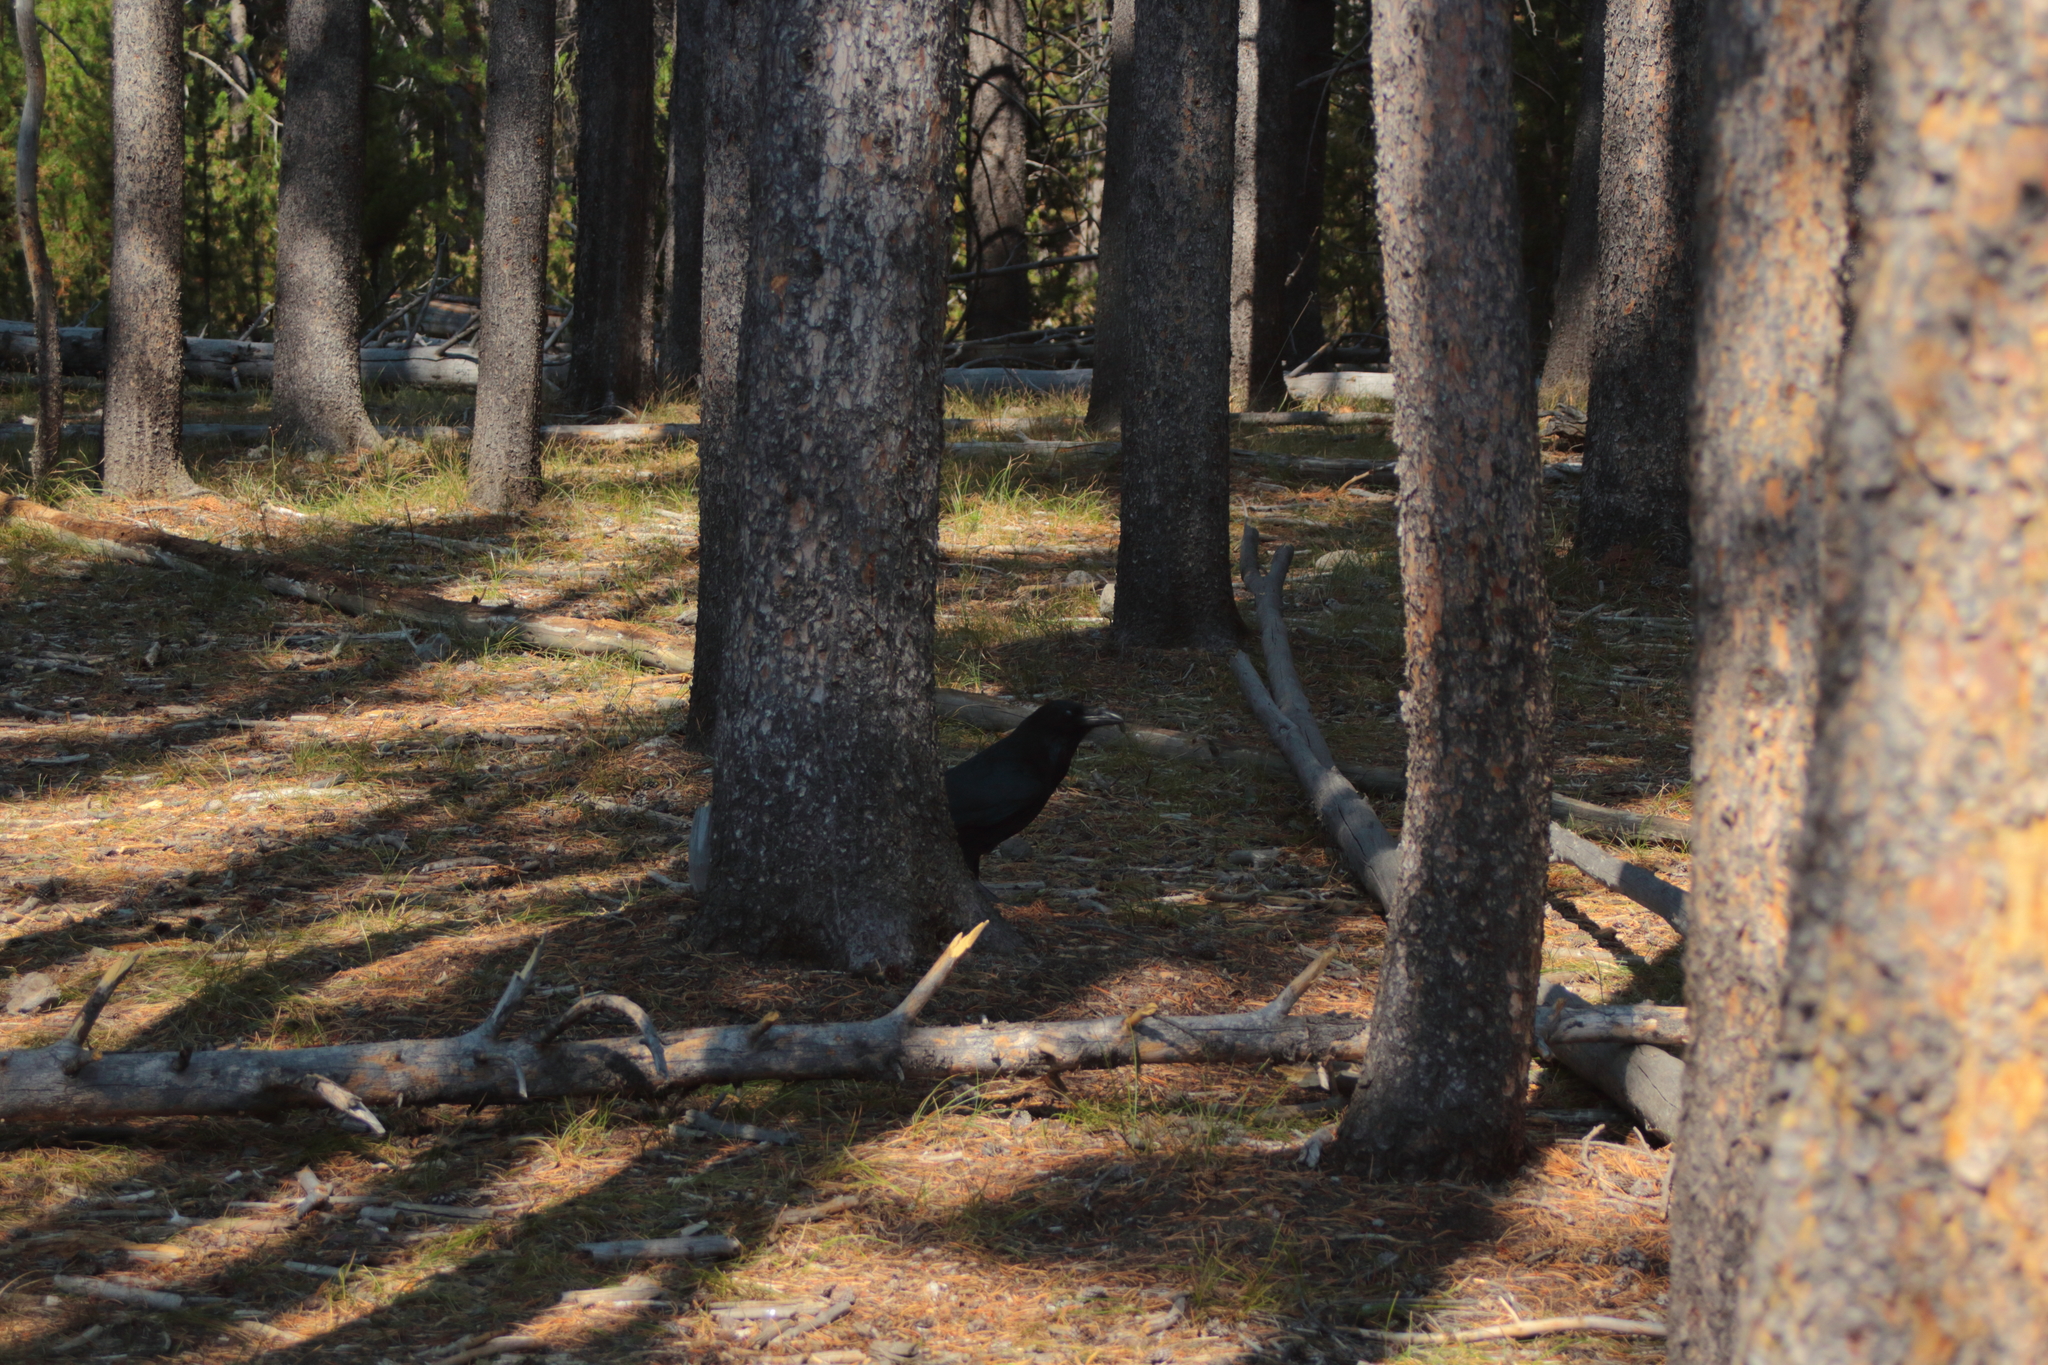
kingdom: Animalia
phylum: Chordata
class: Aves
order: Passeriformes
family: Corvidae
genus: Corvus
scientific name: Corvus corax
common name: Common raven
